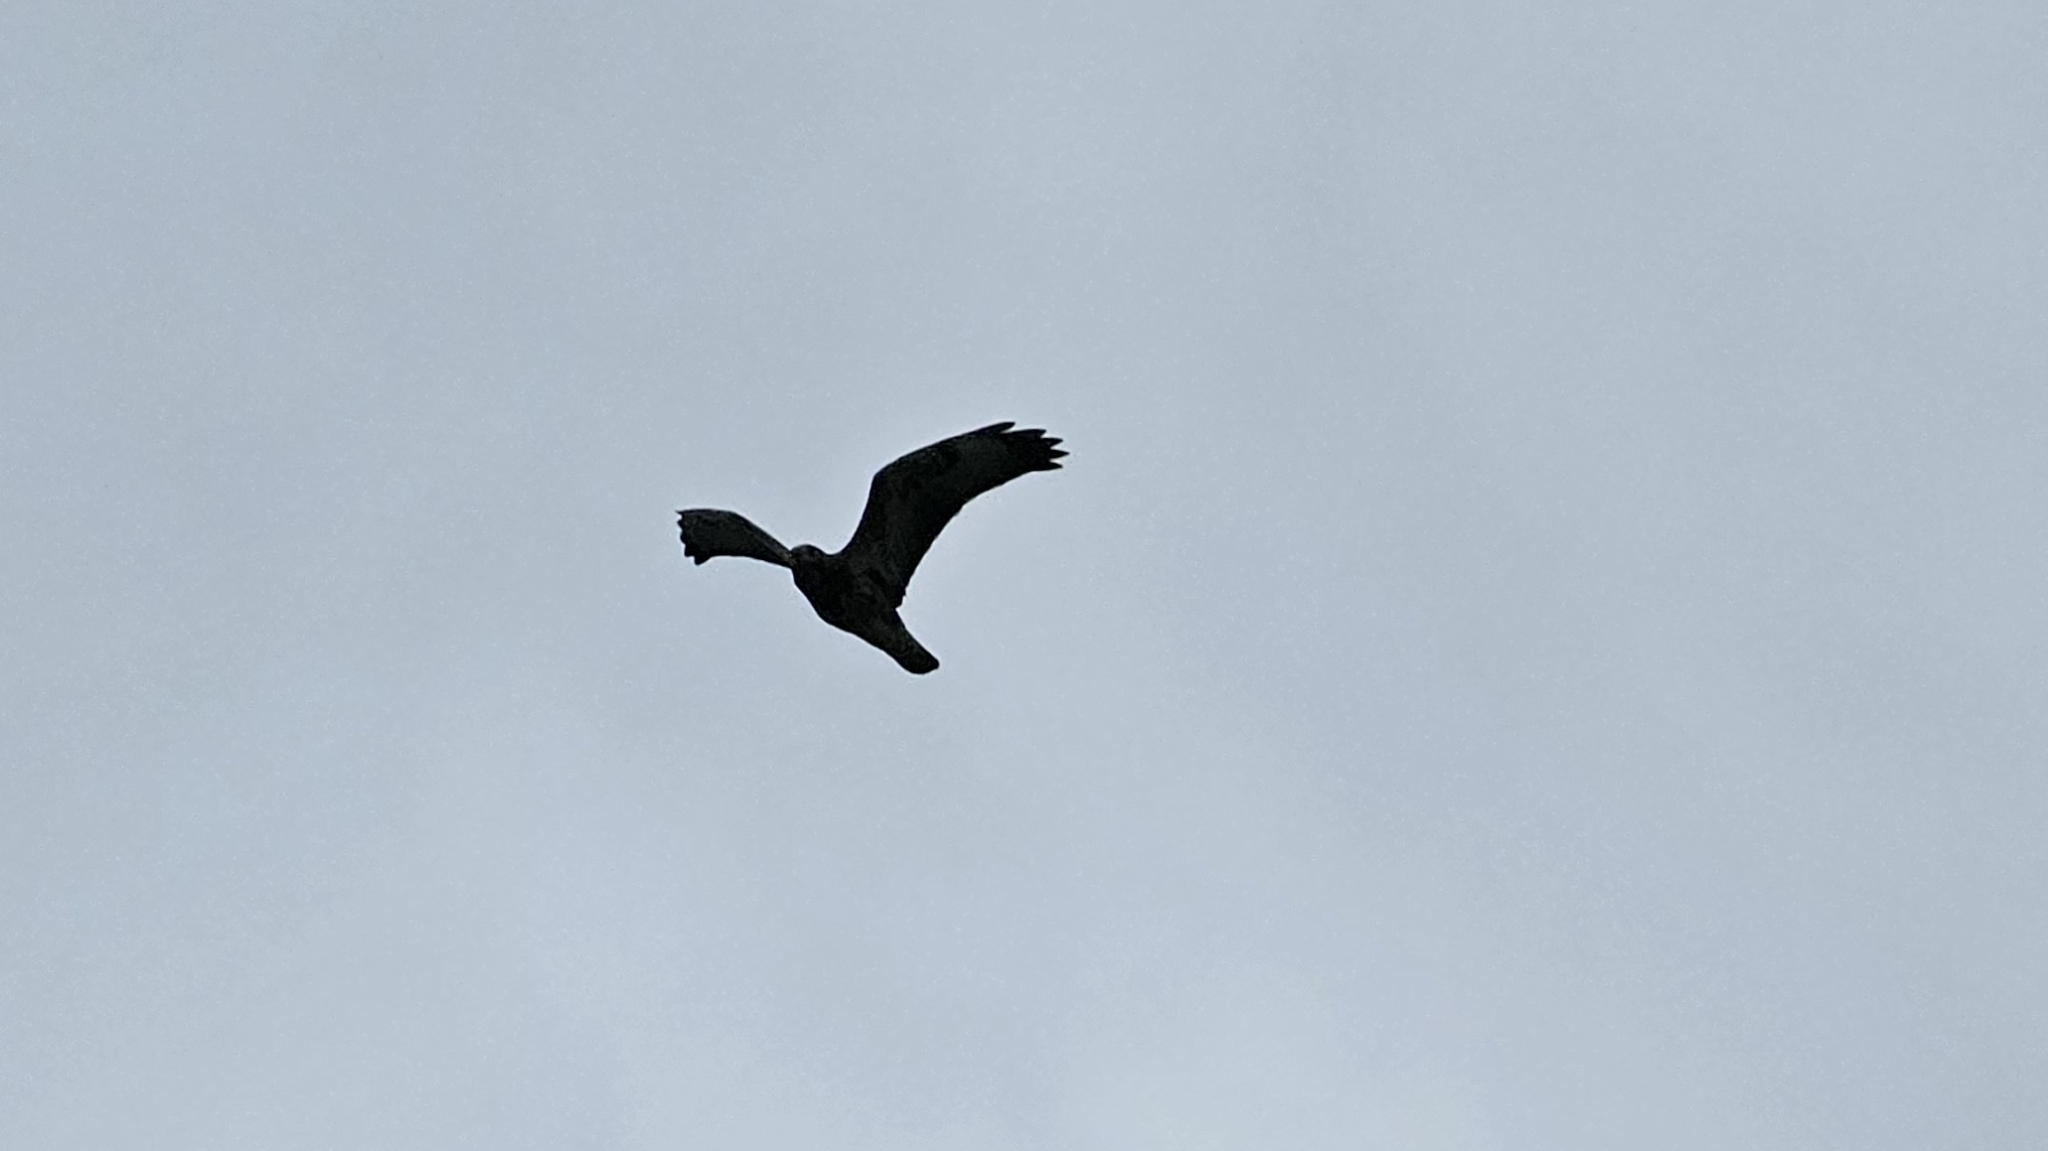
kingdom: Animalia
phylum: Chordata
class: Aves
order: Accipitriformes
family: Accipitridae
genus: Buteo
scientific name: Buteo buteo
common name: Common buzzard
